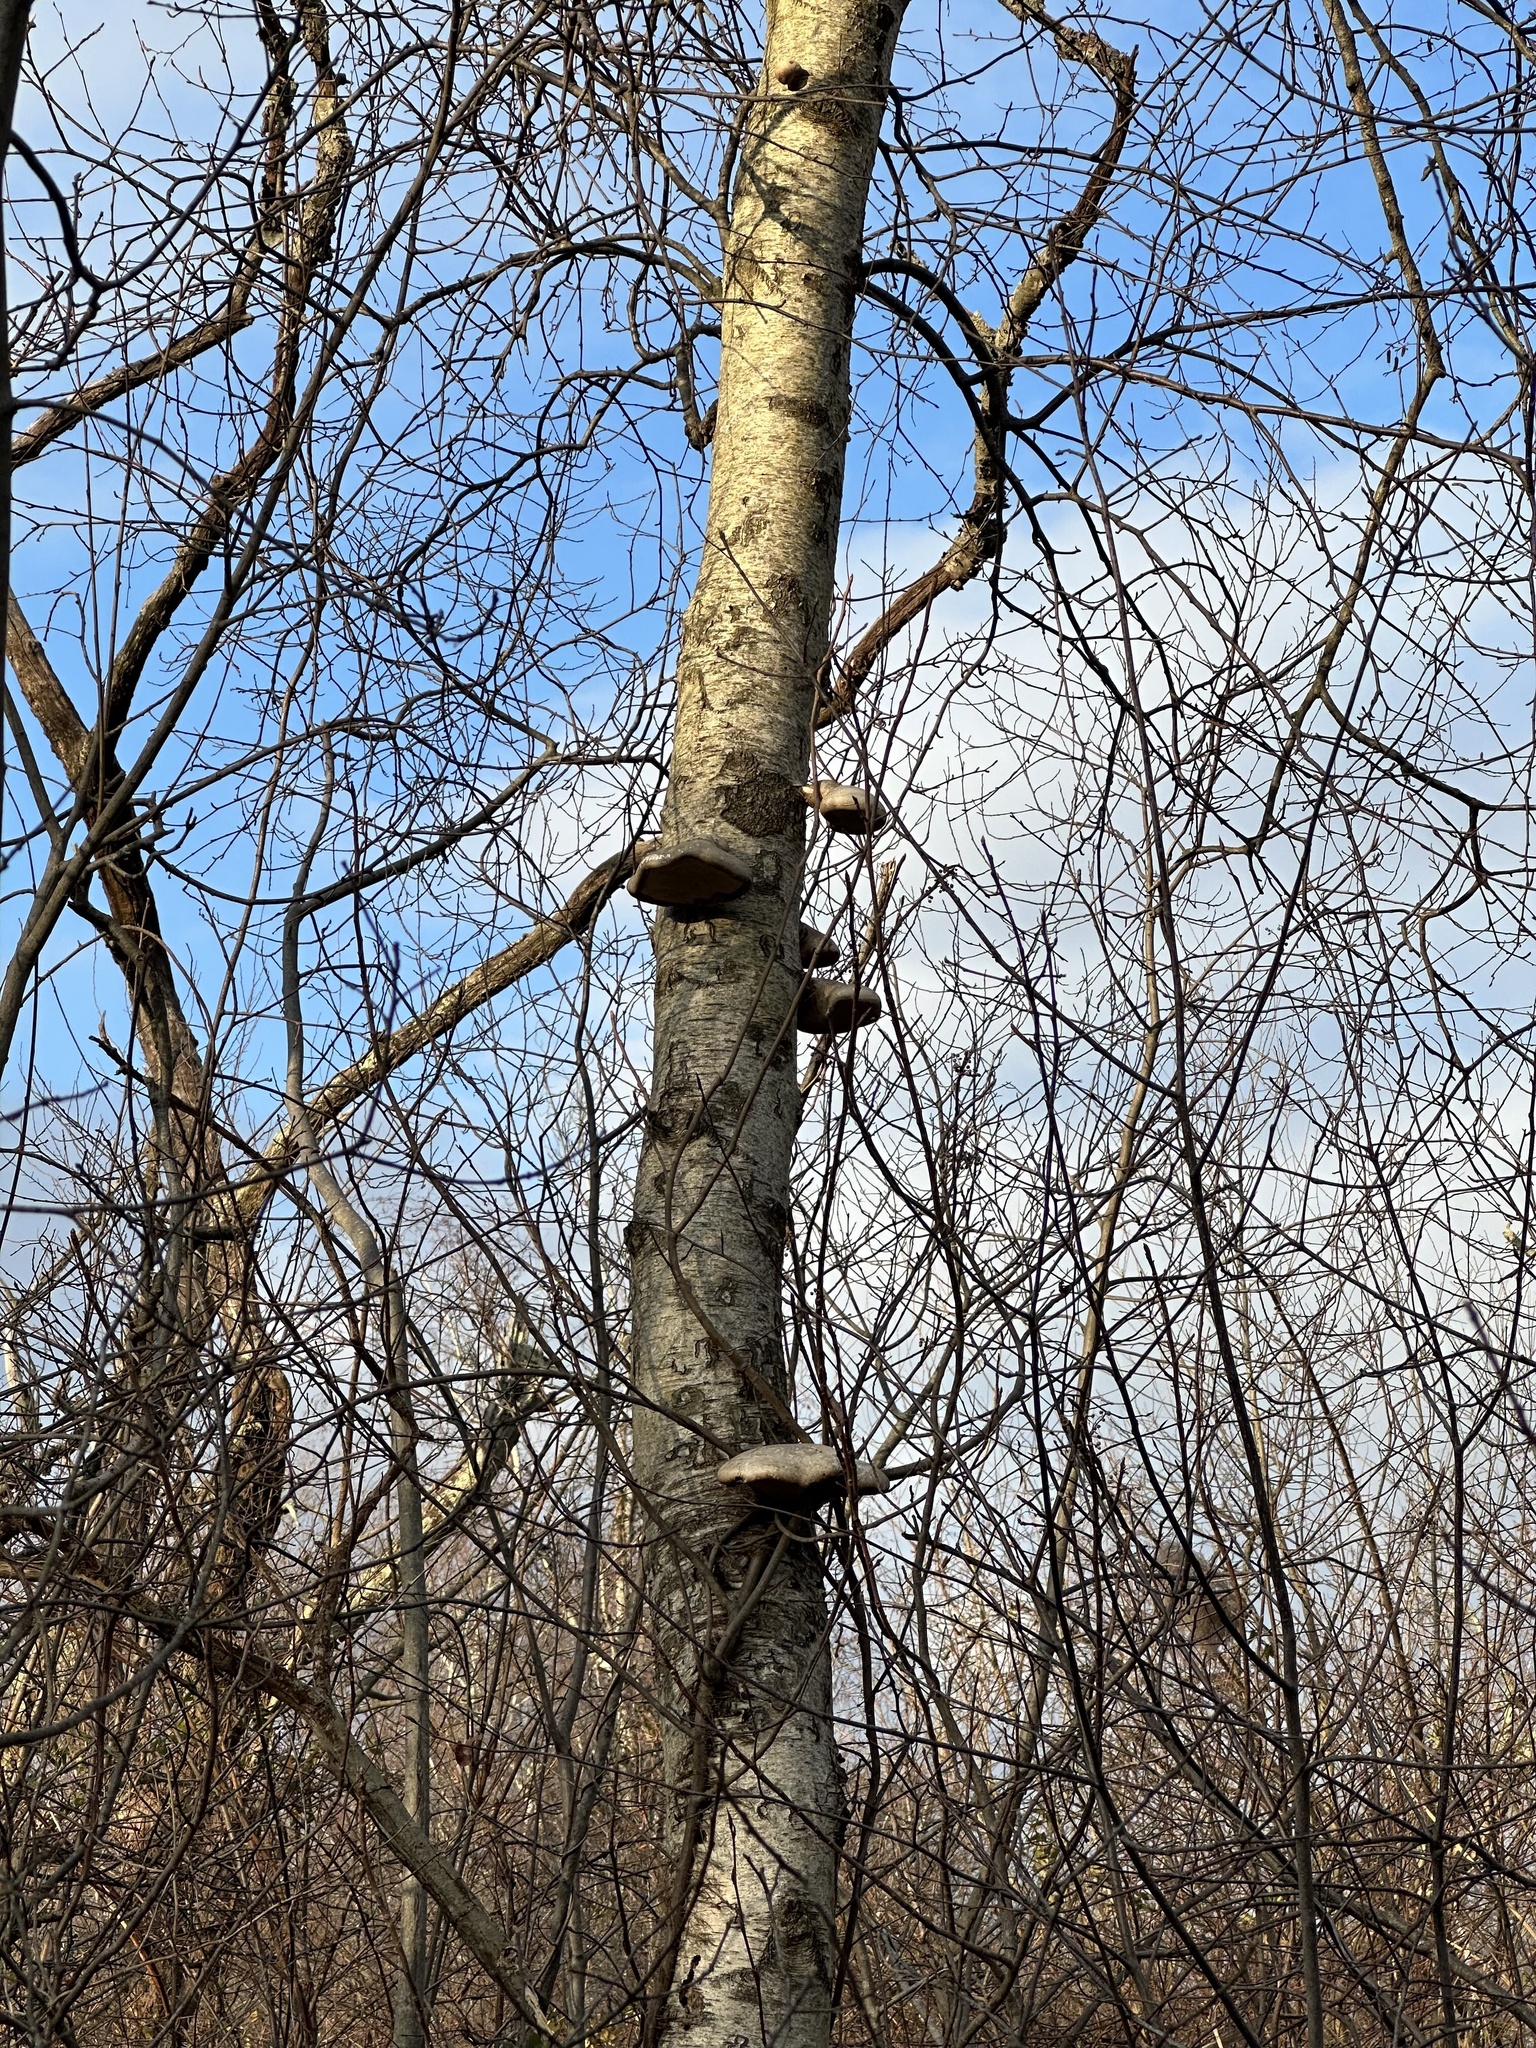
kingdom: Fungi
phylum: Basidiomycota
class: Agaricomycetes
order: Polyporales
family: Fomitopsidaceae
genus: Fomitopsis
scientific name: Fomitopsis betulina
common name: Birch polypore
